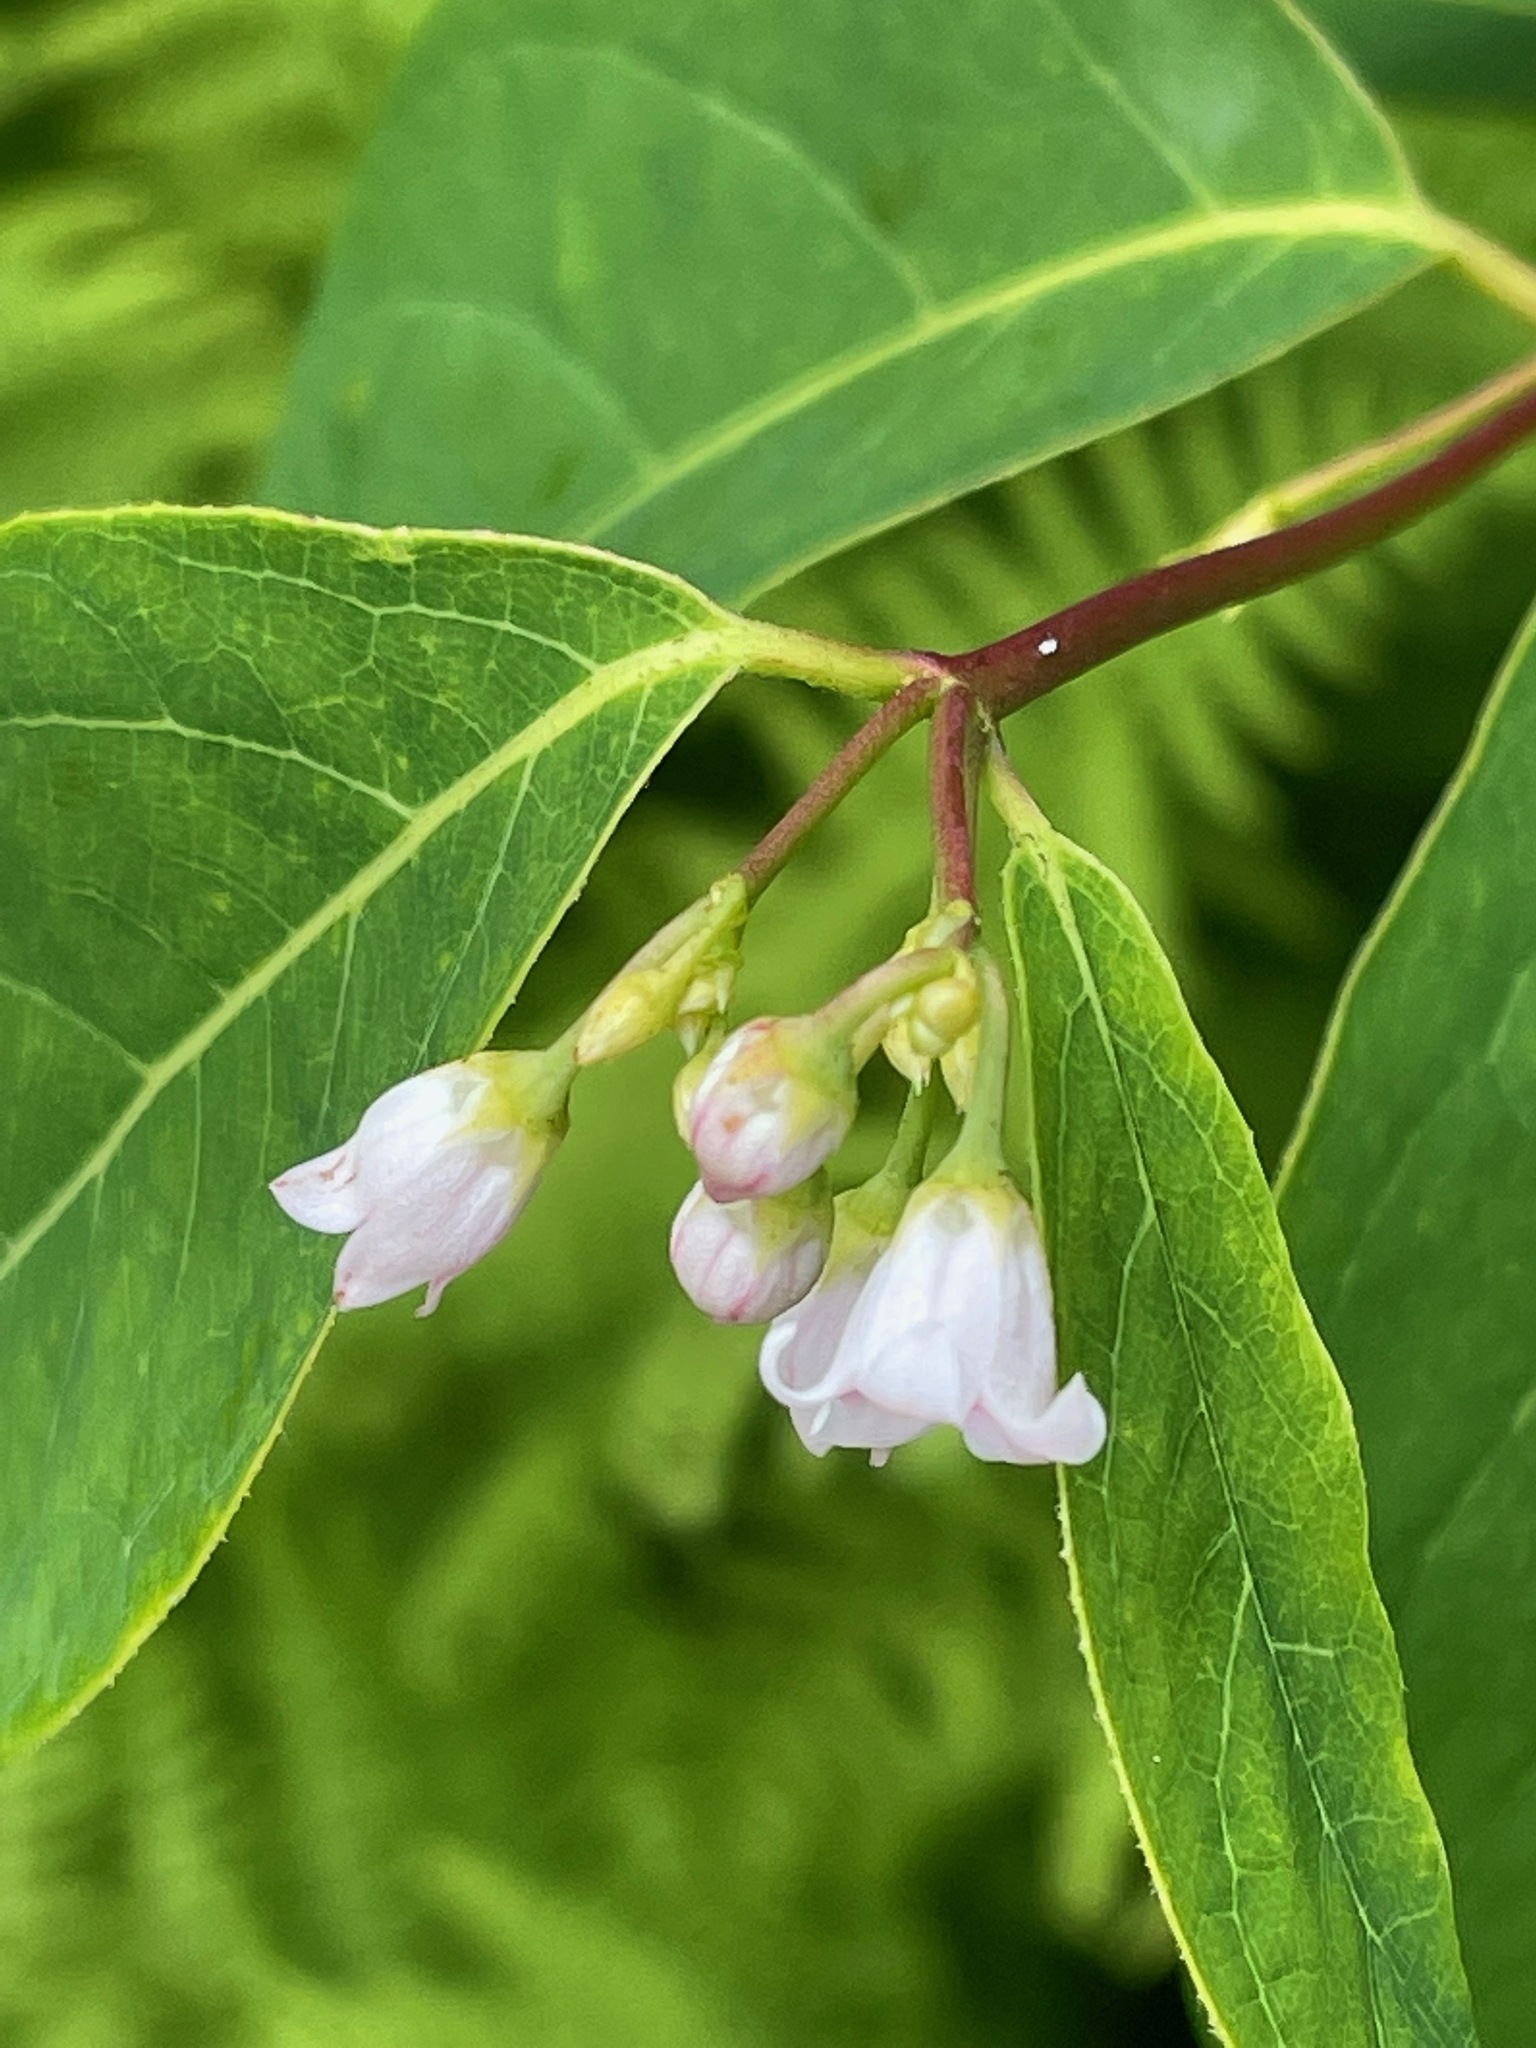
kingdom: Plantae
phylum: Tracheophyta
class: Magnoliopsida
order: Gentianales
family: Apocynaceae
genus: Apocynum
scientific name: Apocynum androsaemifolium
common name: Spreading dogbane
